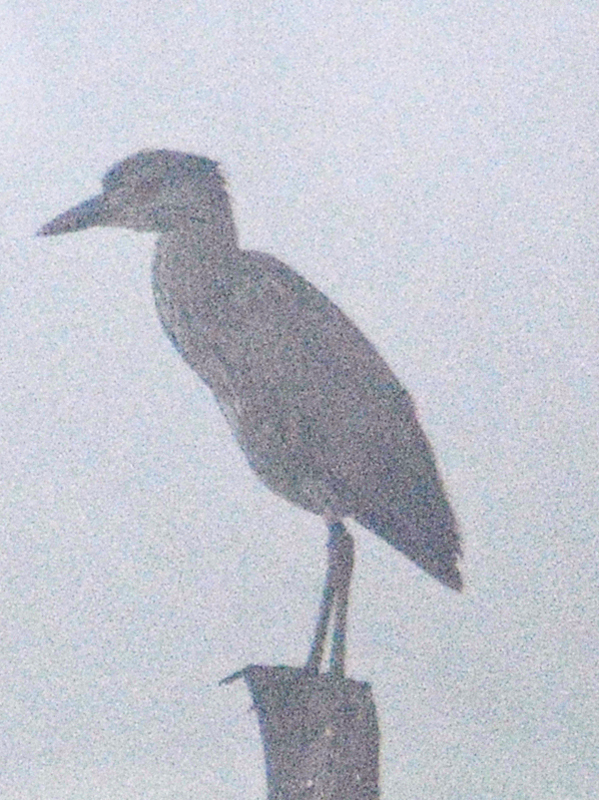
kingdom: Animalia
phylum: Chordata
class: Aves
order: Pelecaniformes
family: Ardeidae
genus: Nyctanassa
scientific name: Nyctanassa violacea
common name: Yellow-crowned night heron
